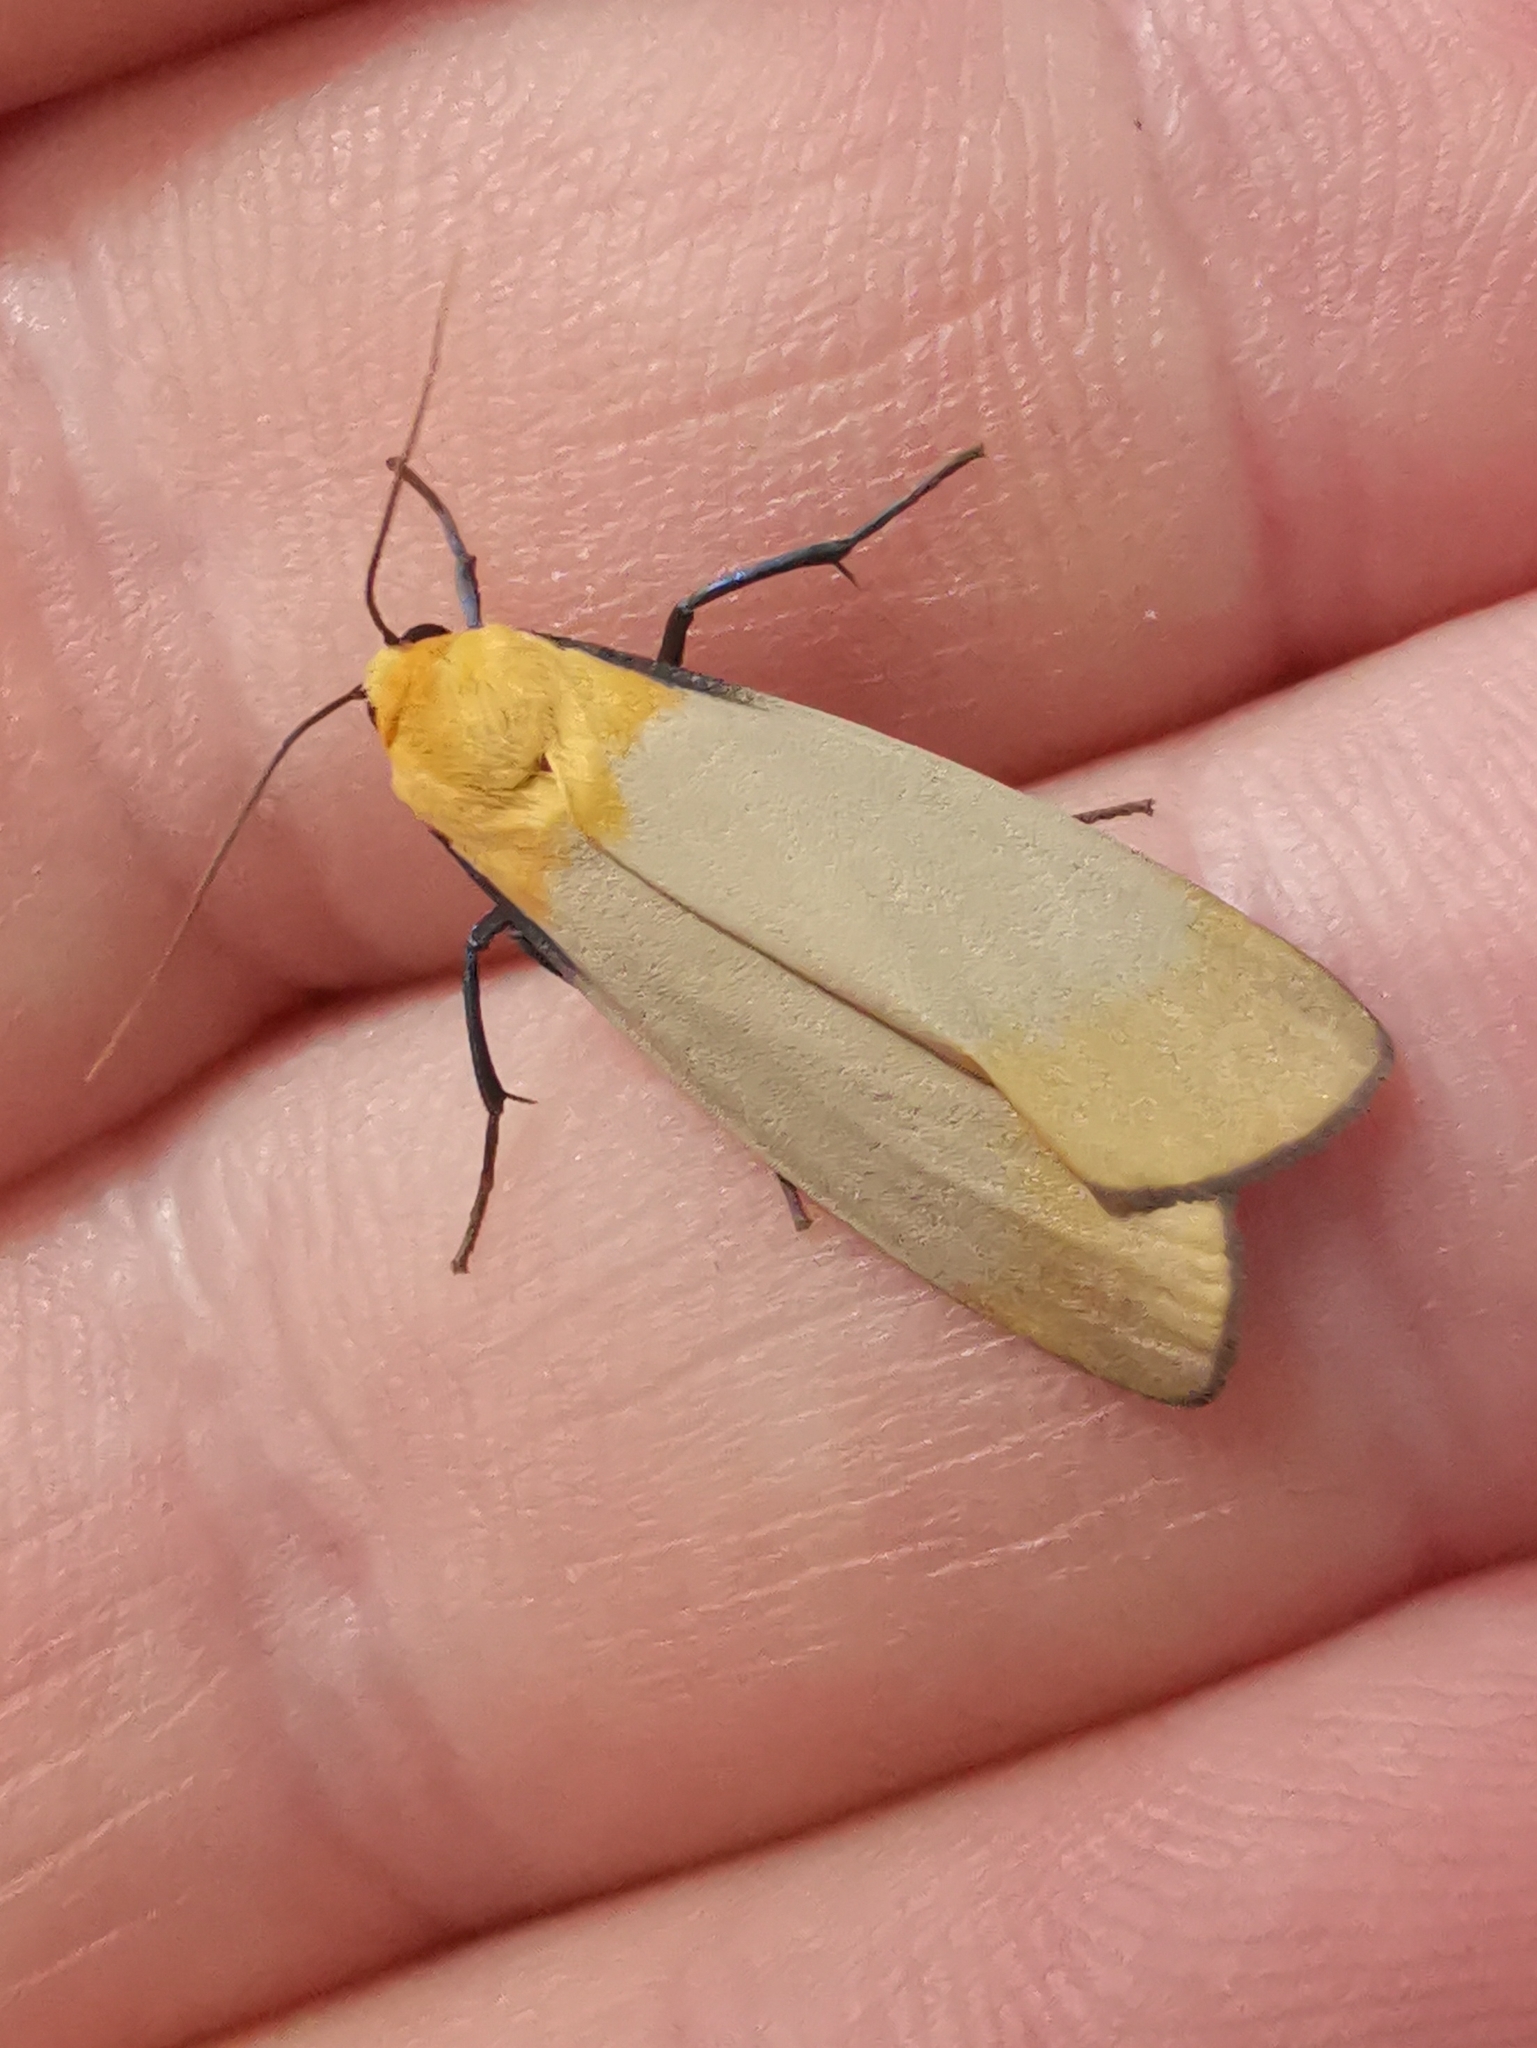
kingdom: Animalia
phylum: Arthropoda
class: Insecta
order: Lepidoptera
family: Erebidae
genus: Lithosia
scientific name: Lithosia quadra
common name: Four-spotted footman
